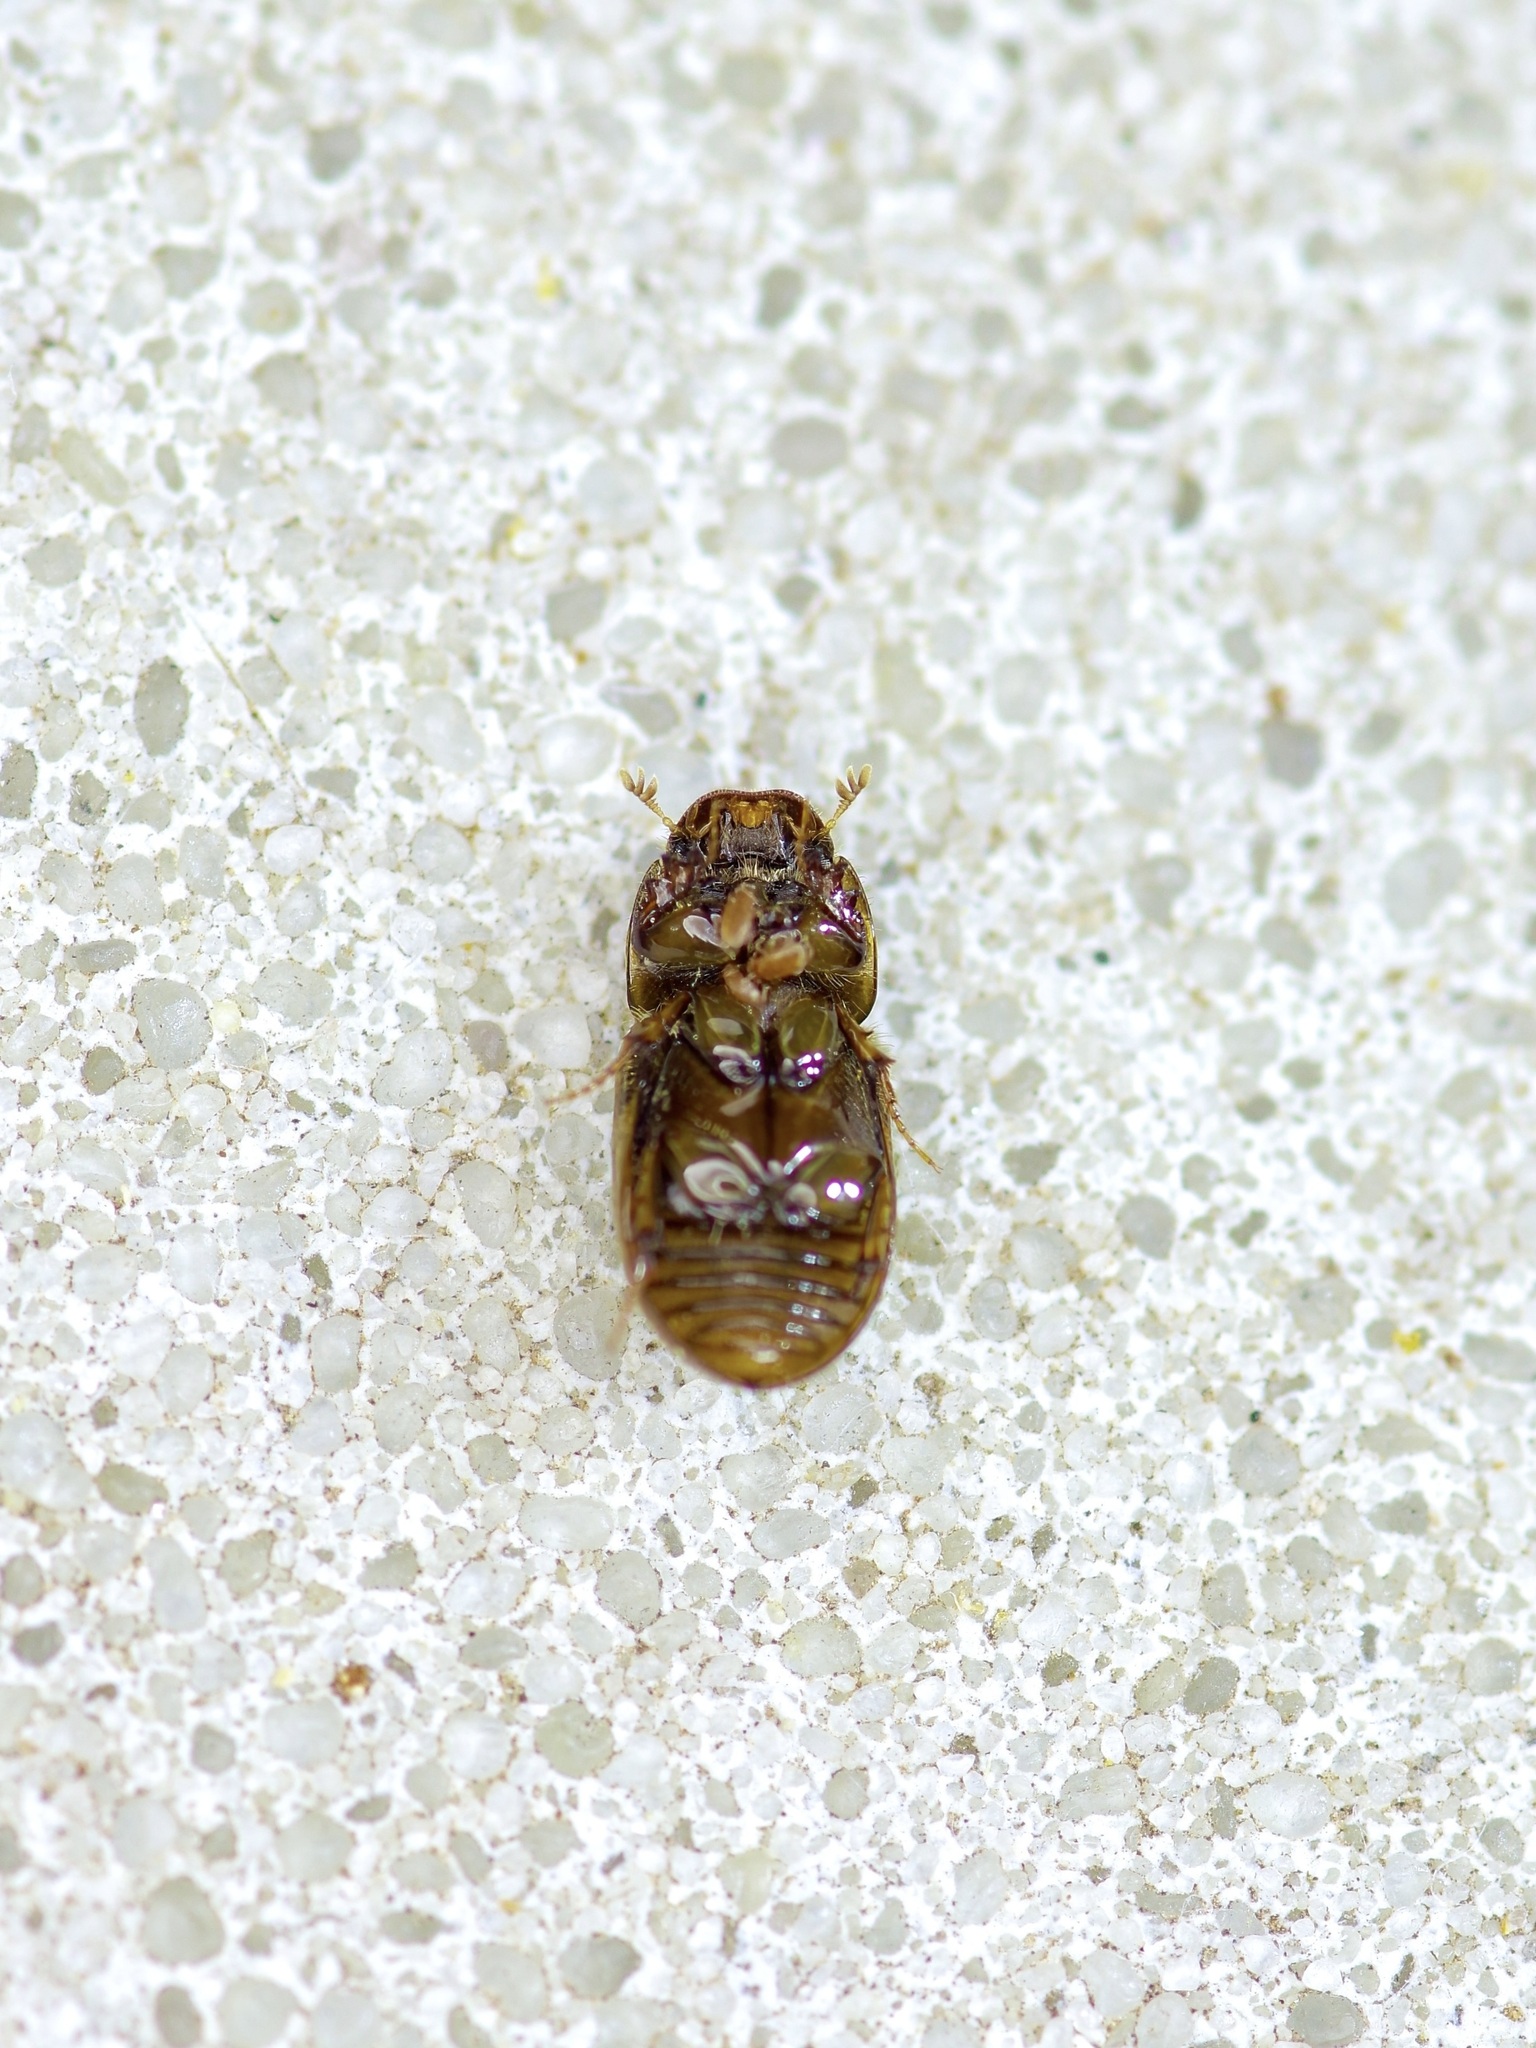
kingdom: Animalia
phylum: Arthropoda
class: Insecta
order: Coleoptera
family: Scarabaeidae
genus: Labarrus
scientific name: Labarrus lividus
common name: Scarab beetle
